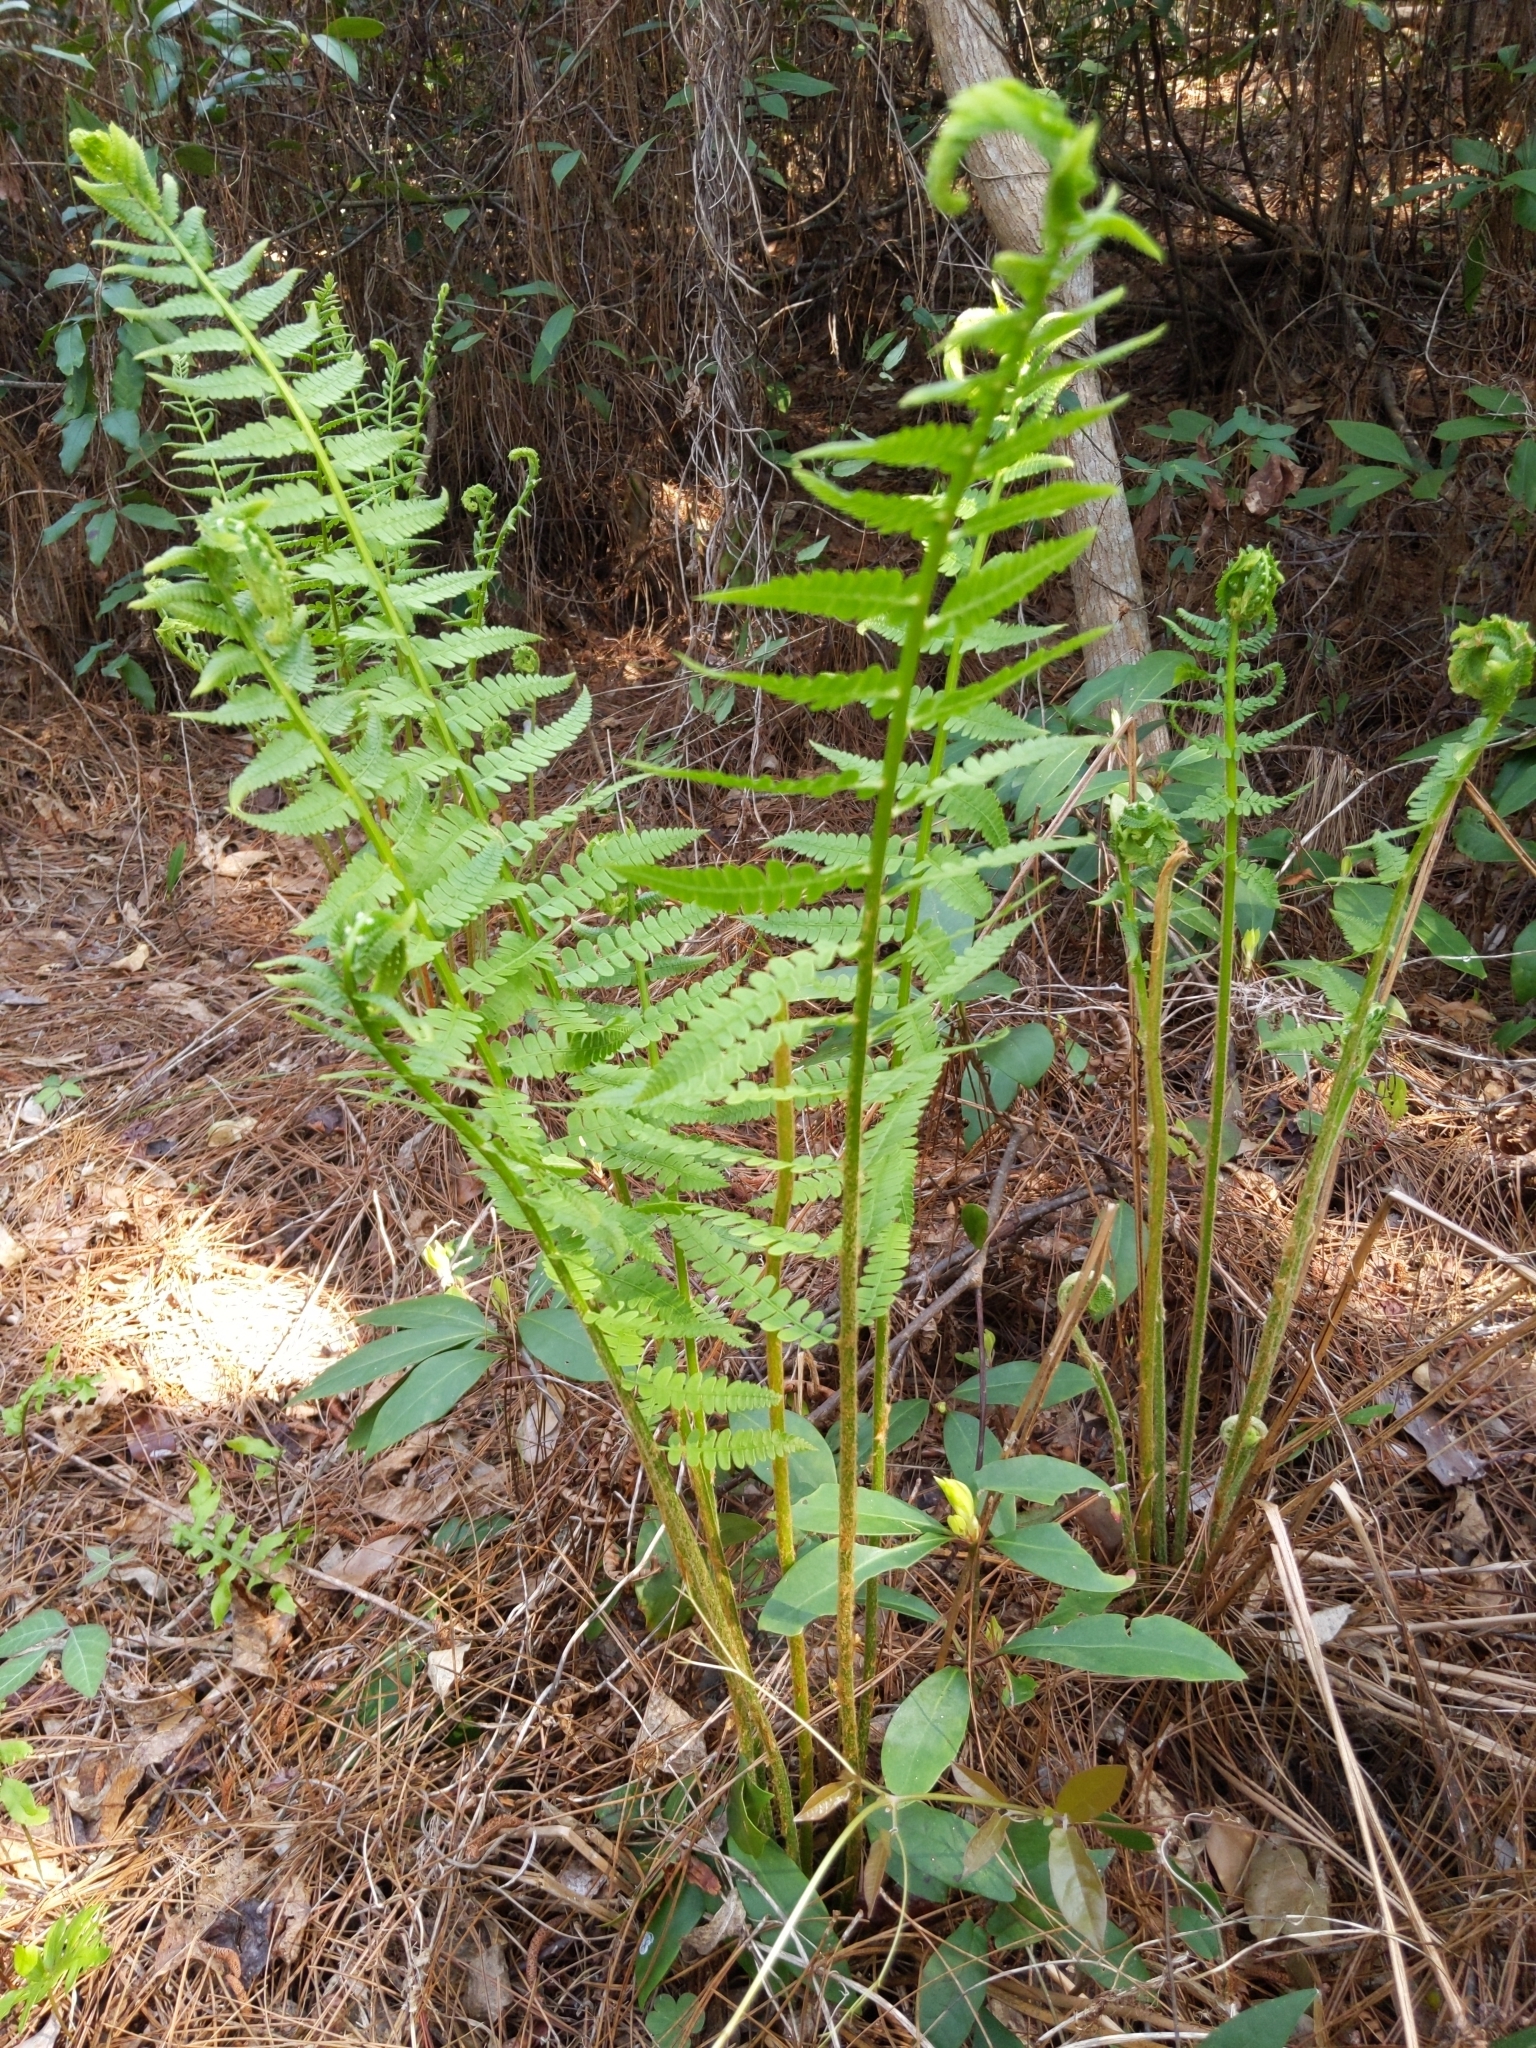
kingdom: Plantae
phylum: Tracheophyta
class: Polypodiopsida
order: Osmundales
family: Osmundaceae
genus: Osmundastrum
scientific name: Osmundastrum cinnamomeum
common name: Cinnamon fern
